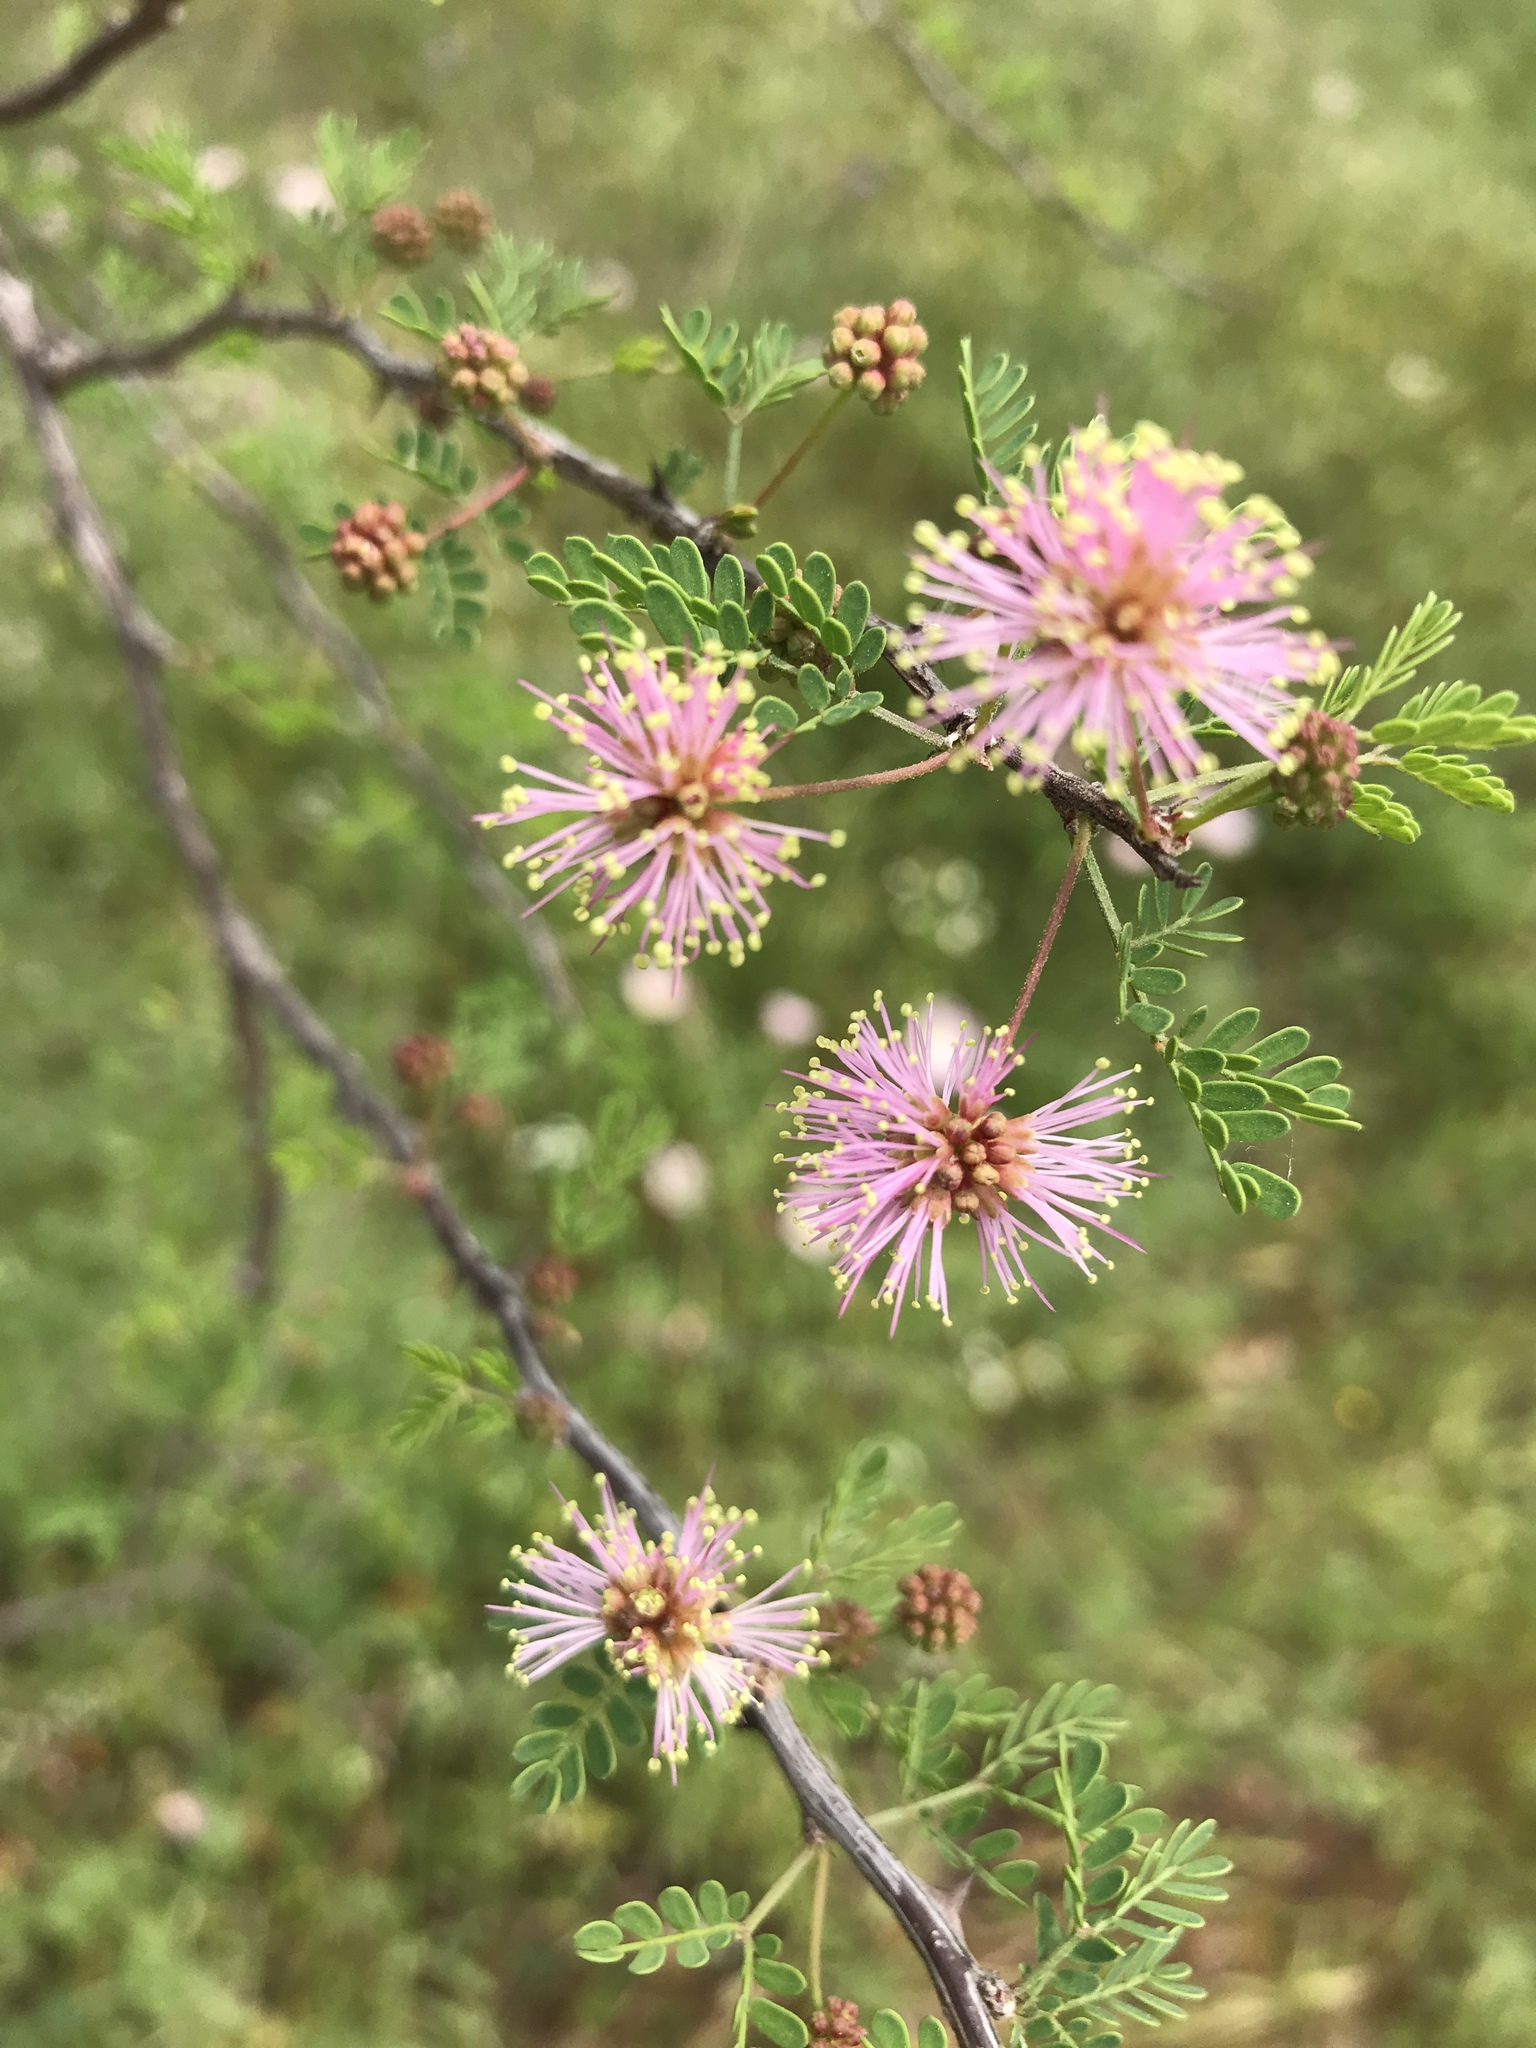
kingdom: Plantae
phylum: Tracheophyta
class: Magnoliopsida
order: Fabales
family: Fabaceae
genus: Mimosa
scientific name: Mimosa texana
